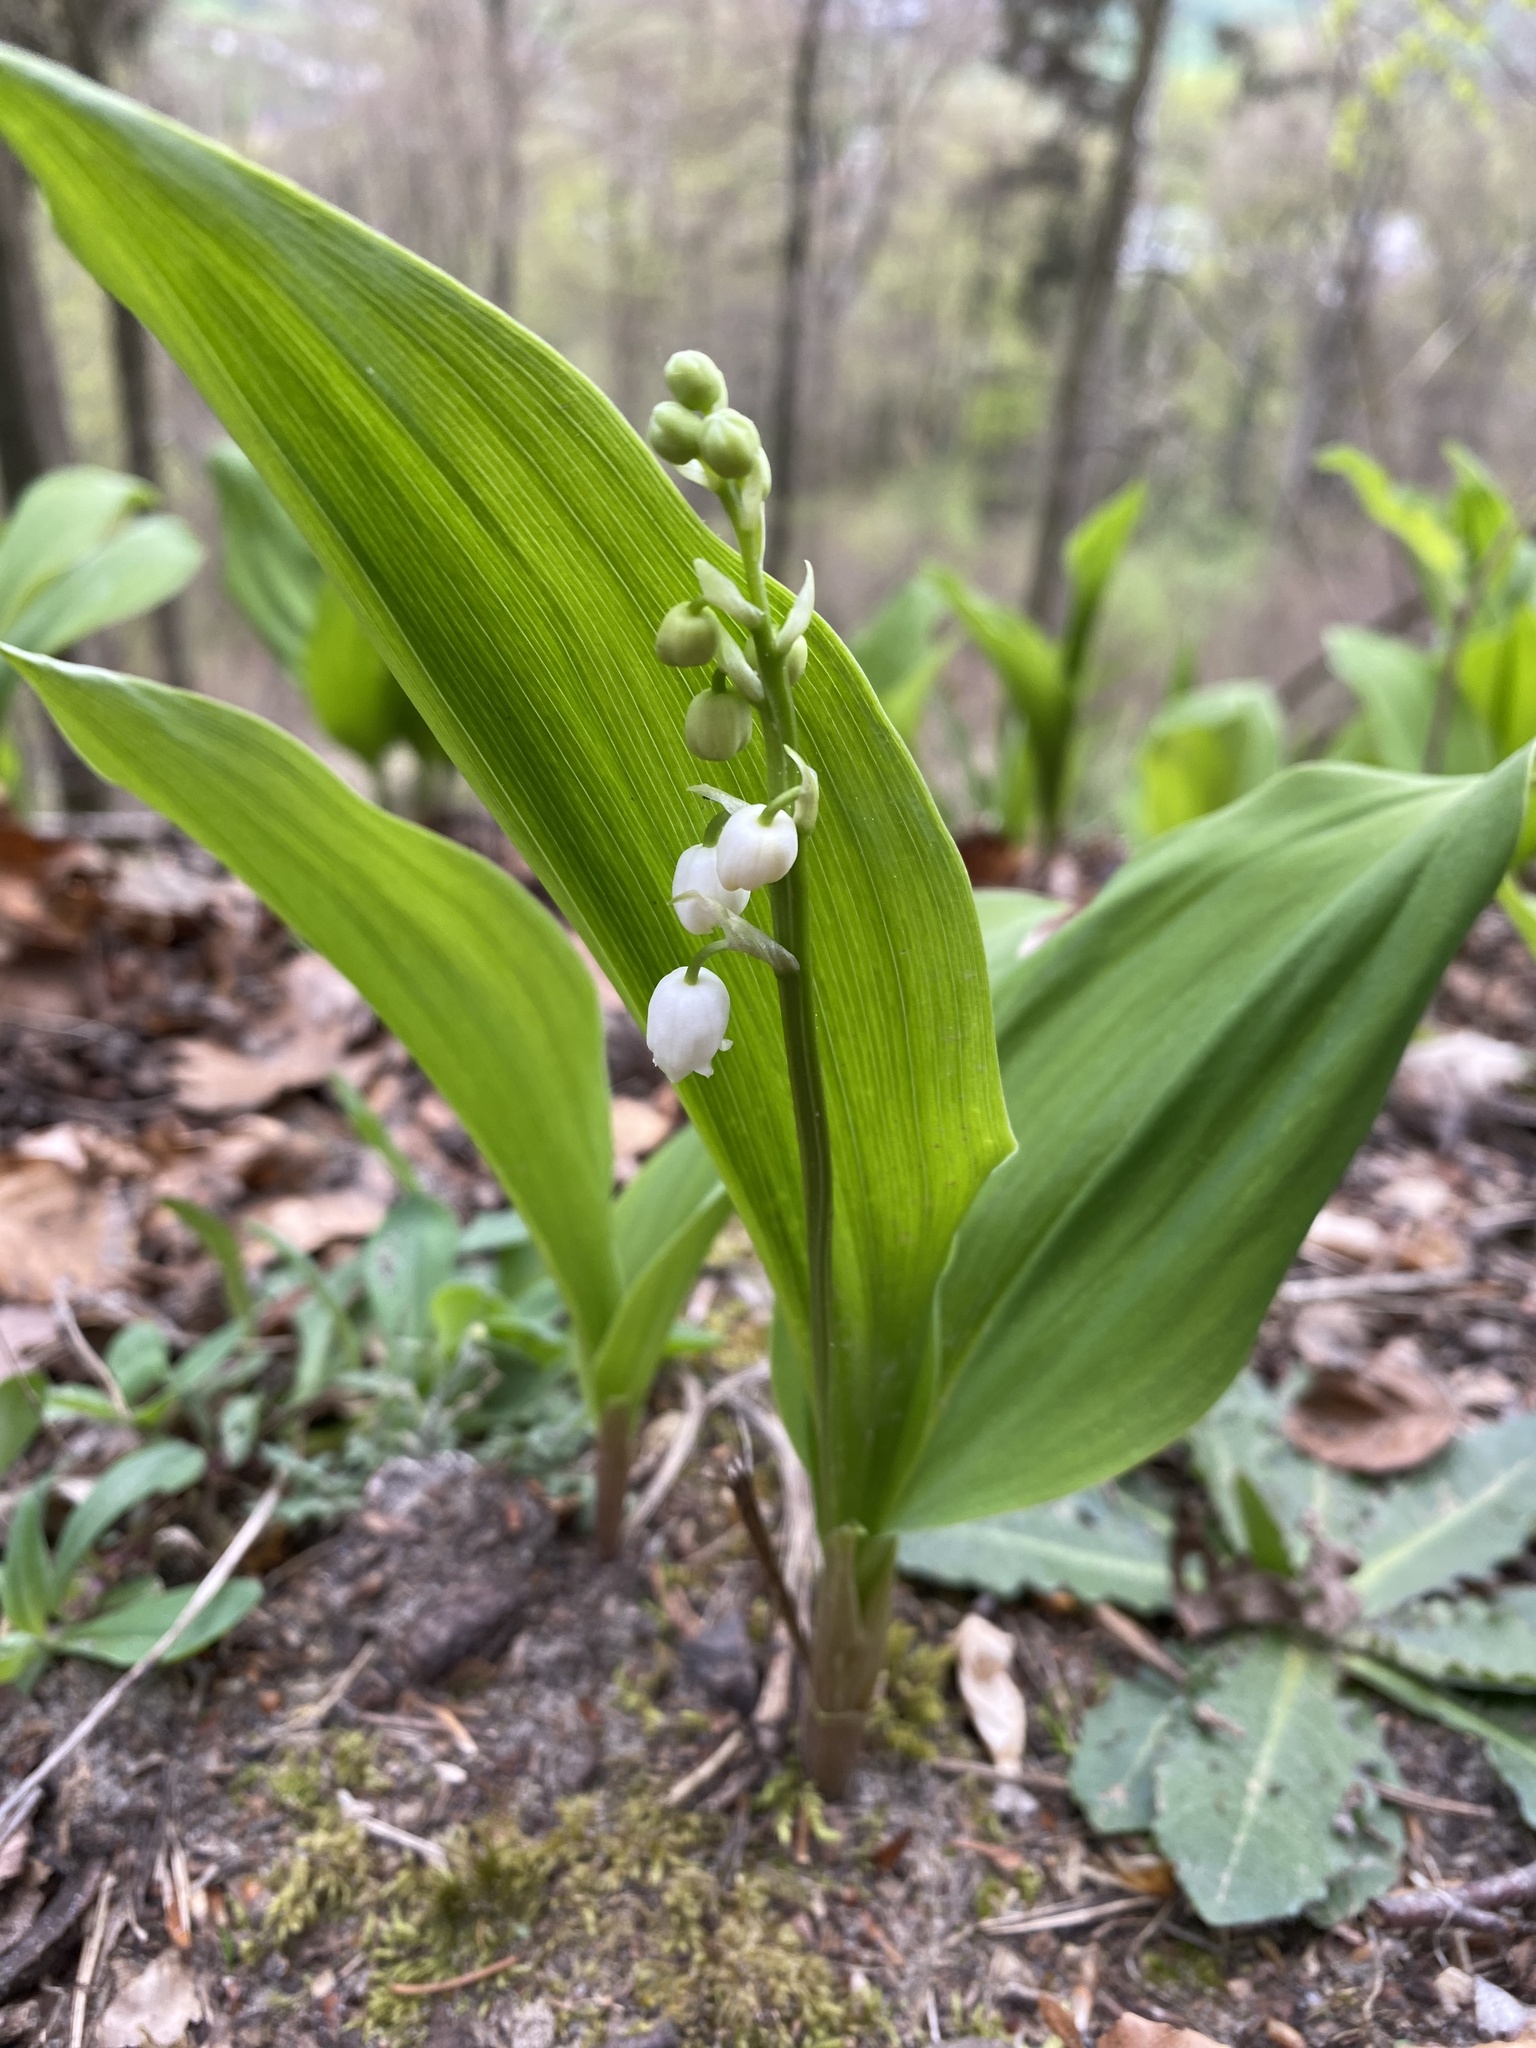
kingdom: Plantae
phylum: Tracheophyta
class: Liliopsida
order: Asparagales
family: Asparagaceae
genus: Convallaria
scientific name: Convallaria majalis
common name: Lily-of-the-valley
